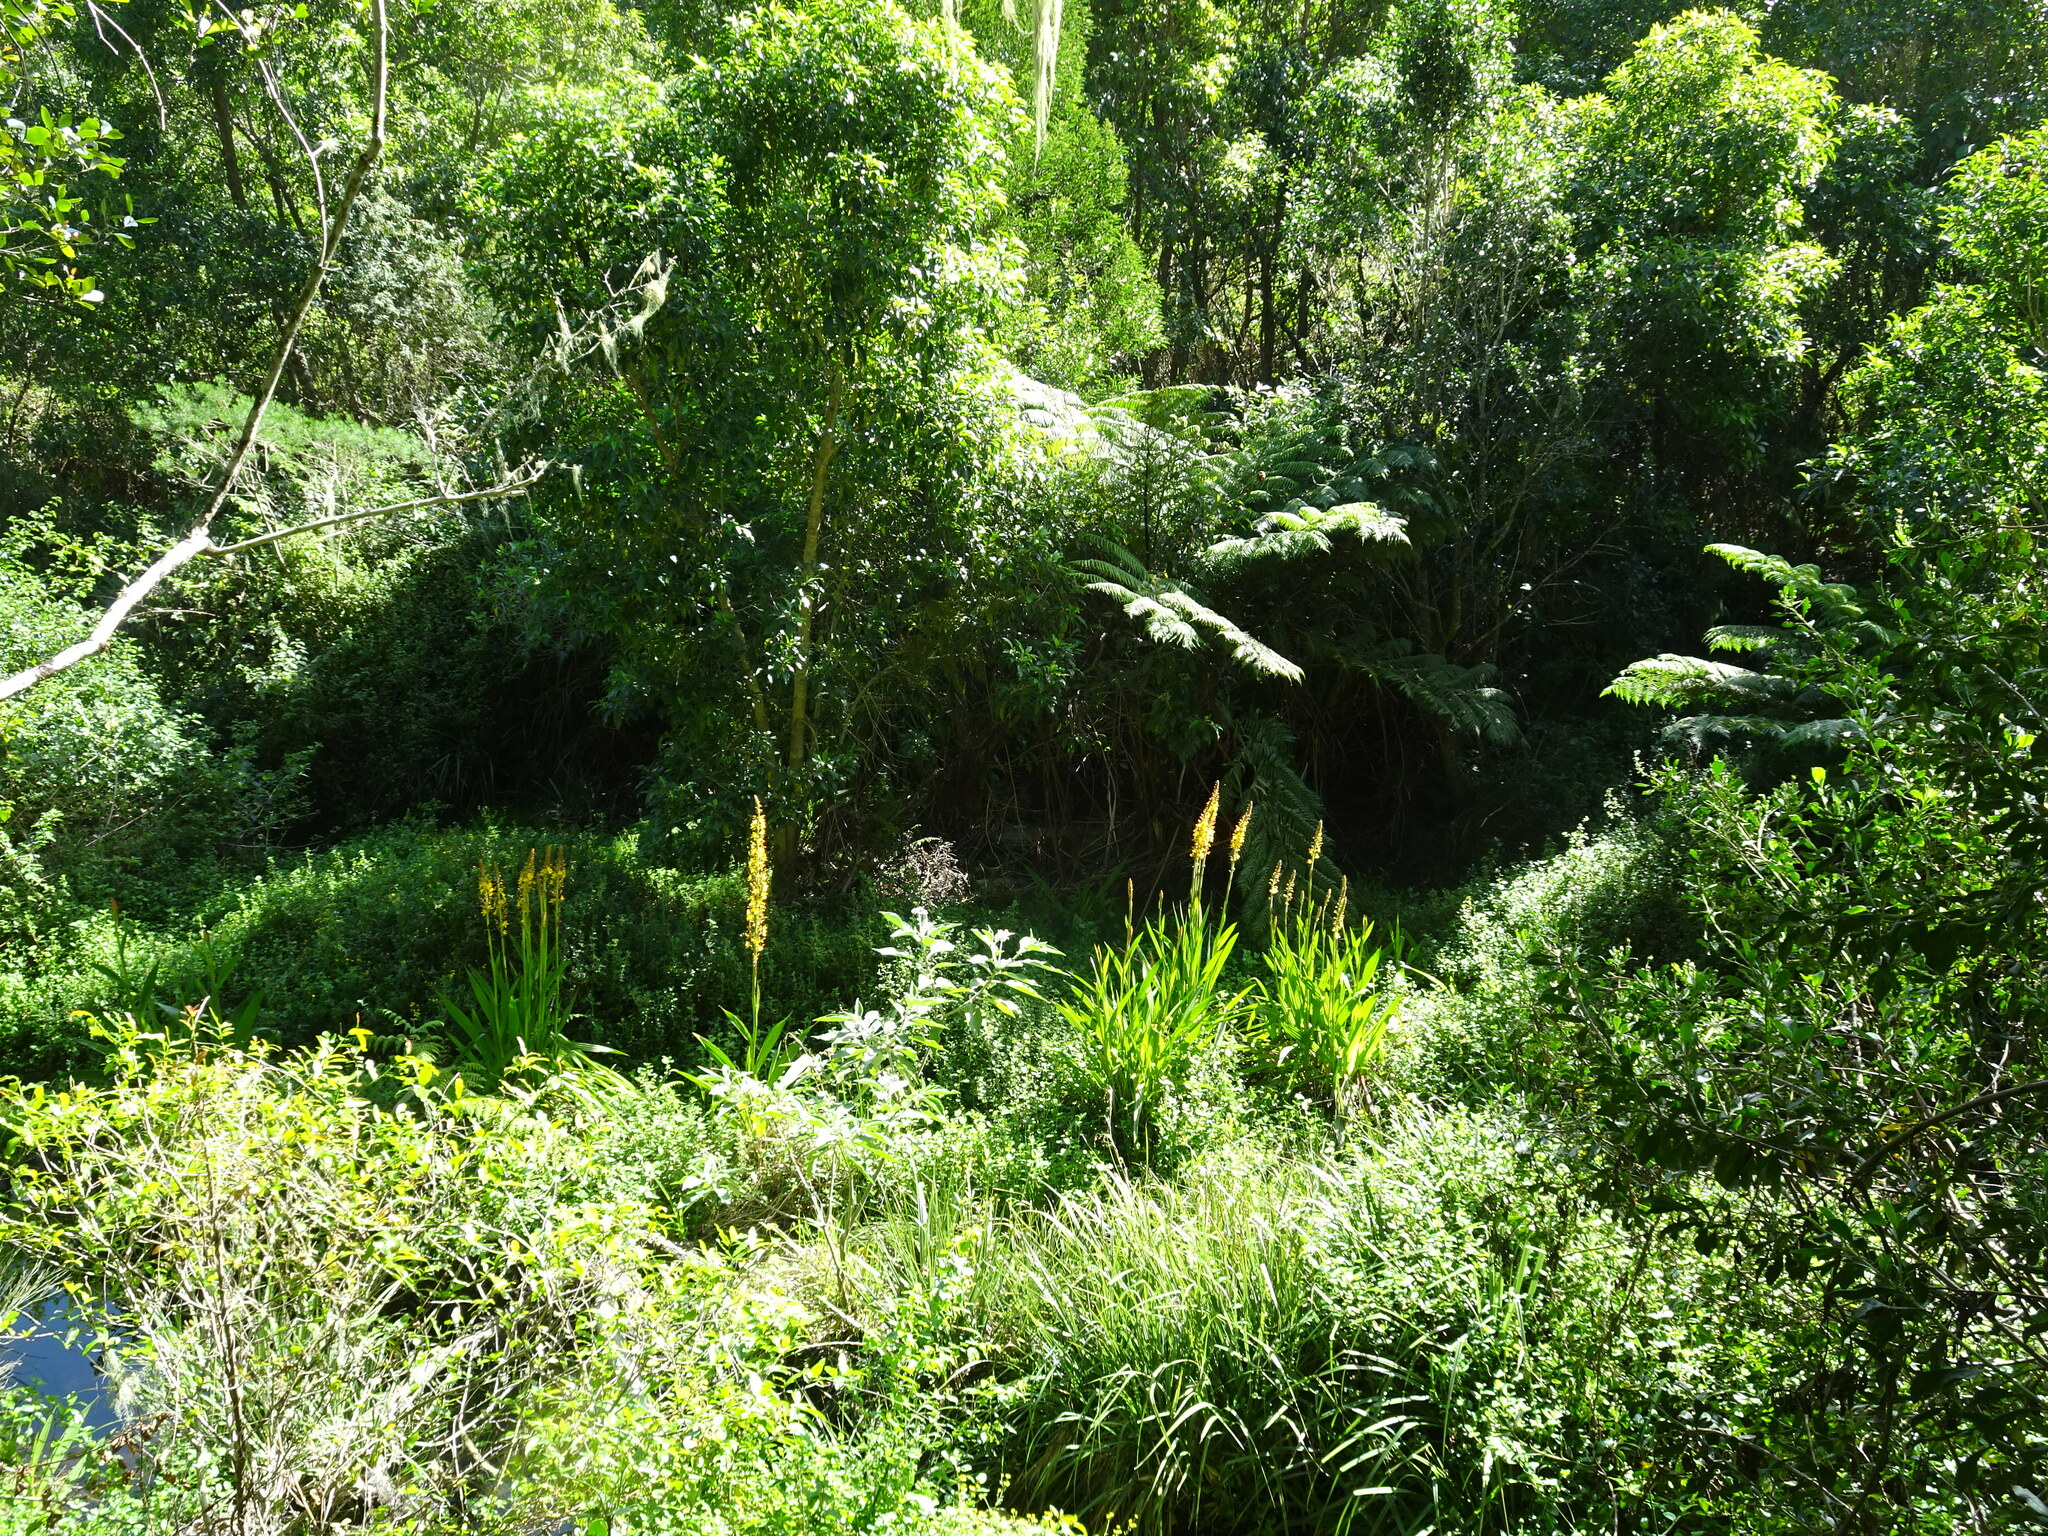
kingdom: Plantae
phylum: Tracheophyta
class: Liliopsida
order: Commelinales
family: Haemodoraceae
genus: Wachendorfia
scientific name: Wachendorfia thyrsiflora
